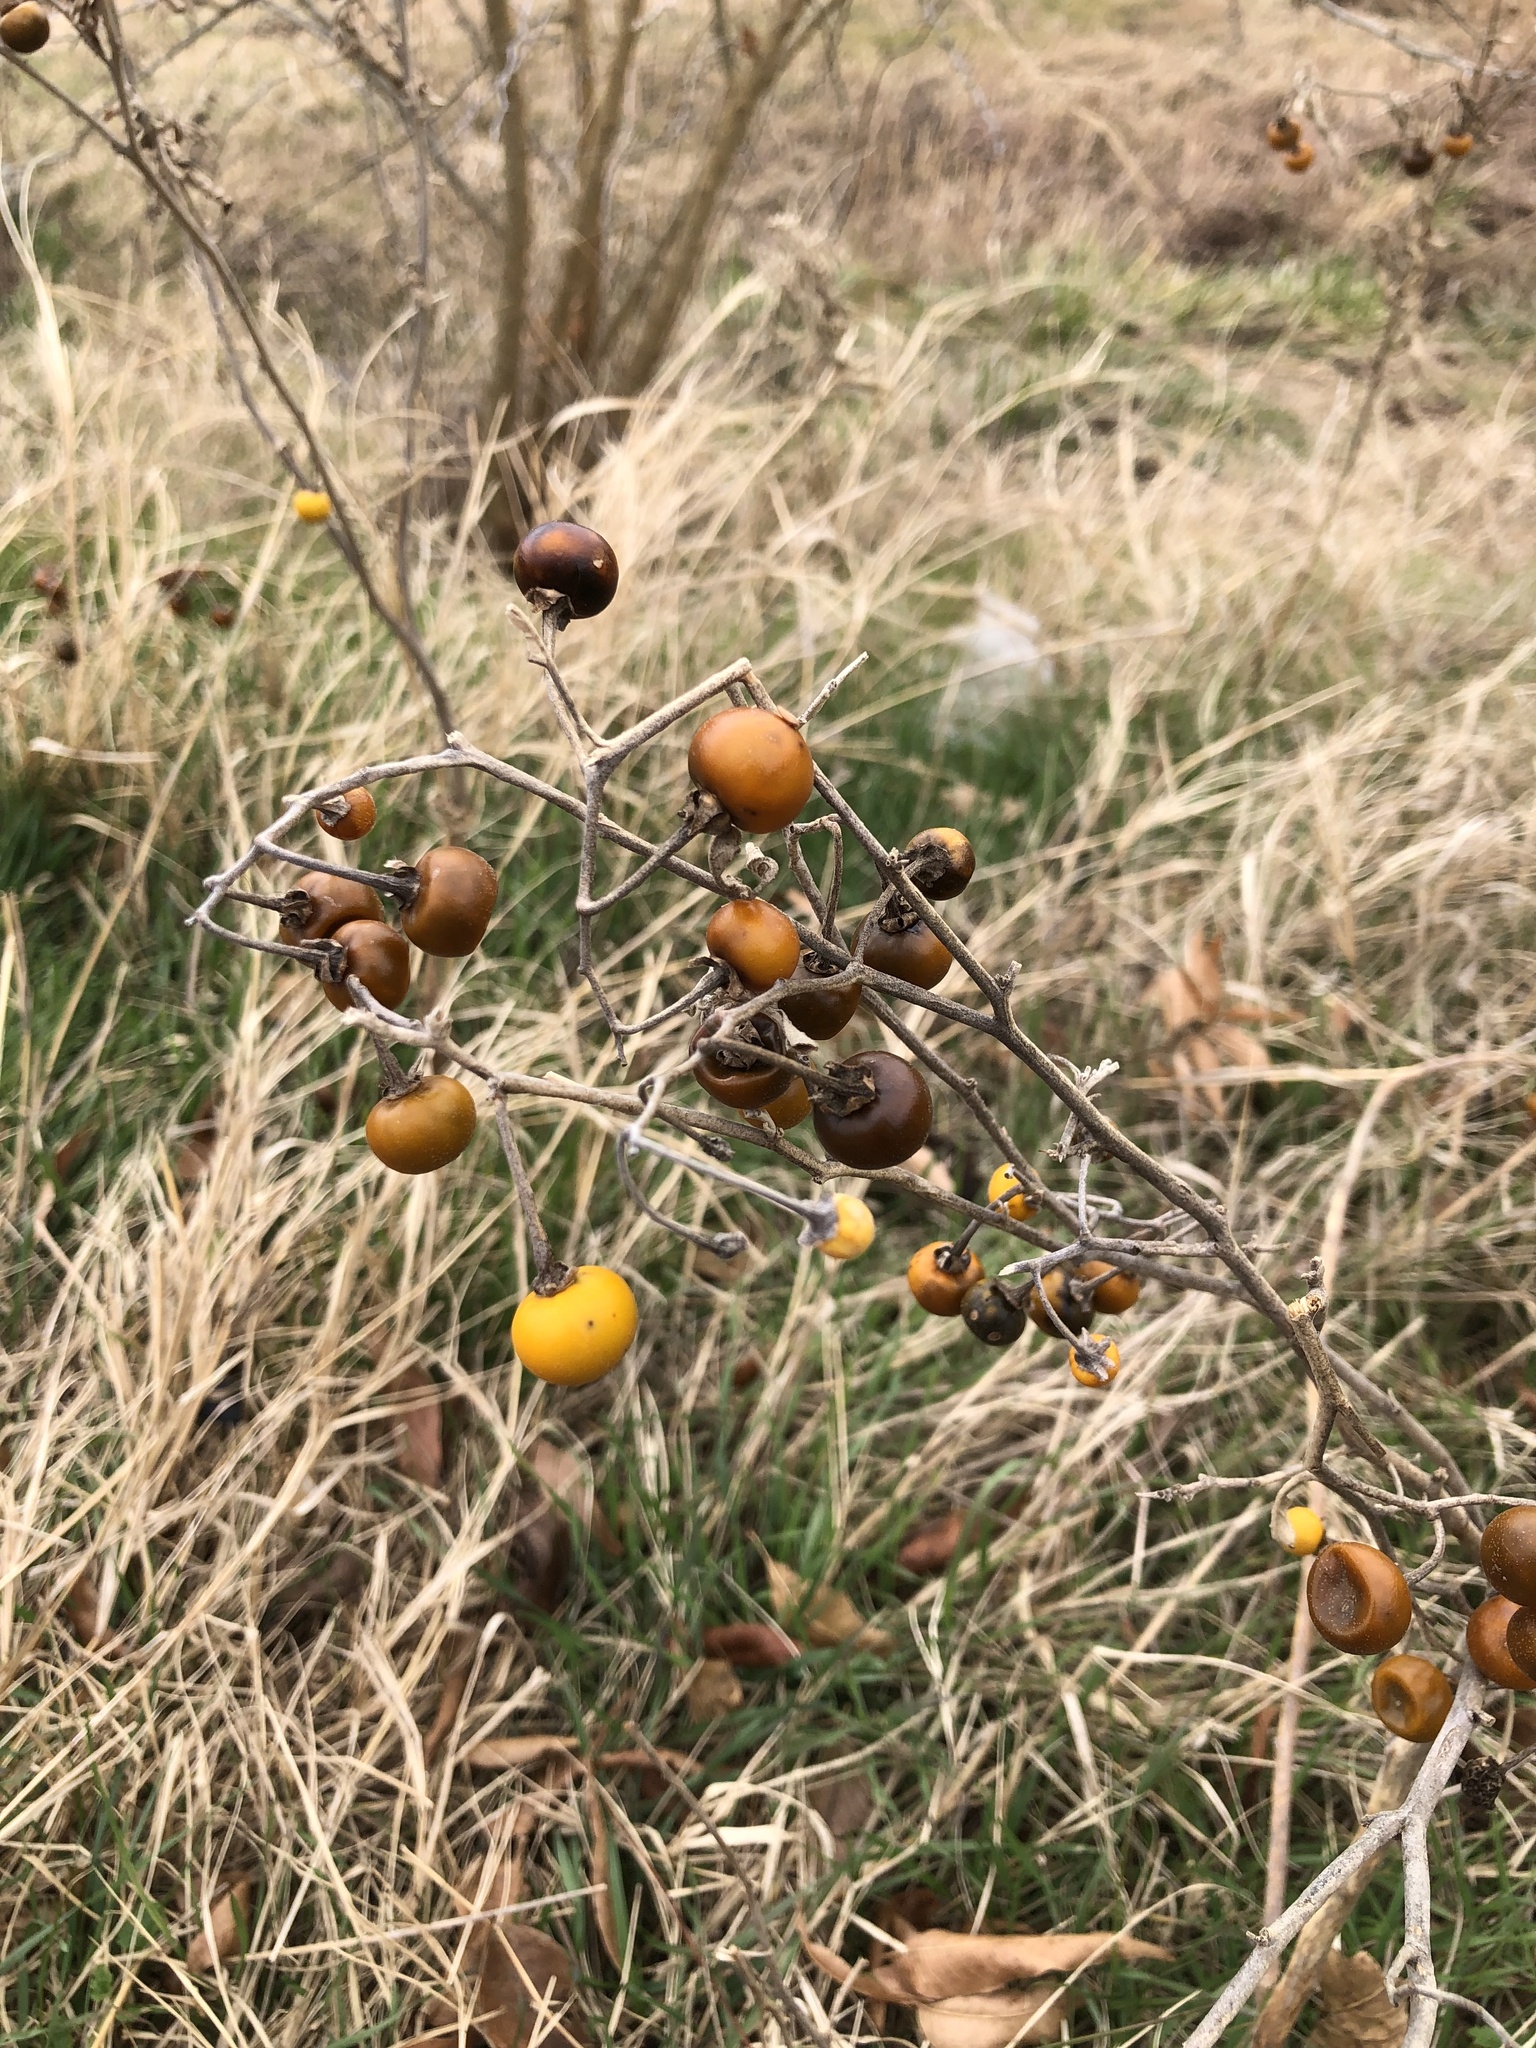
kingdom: Plantae
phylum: Tracheophyta
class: Magnoliopsida
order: Solanales
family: Solanaceae
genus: Solanum
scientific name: Solanum elaeagnifolium
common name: Silverleaf nightshade
